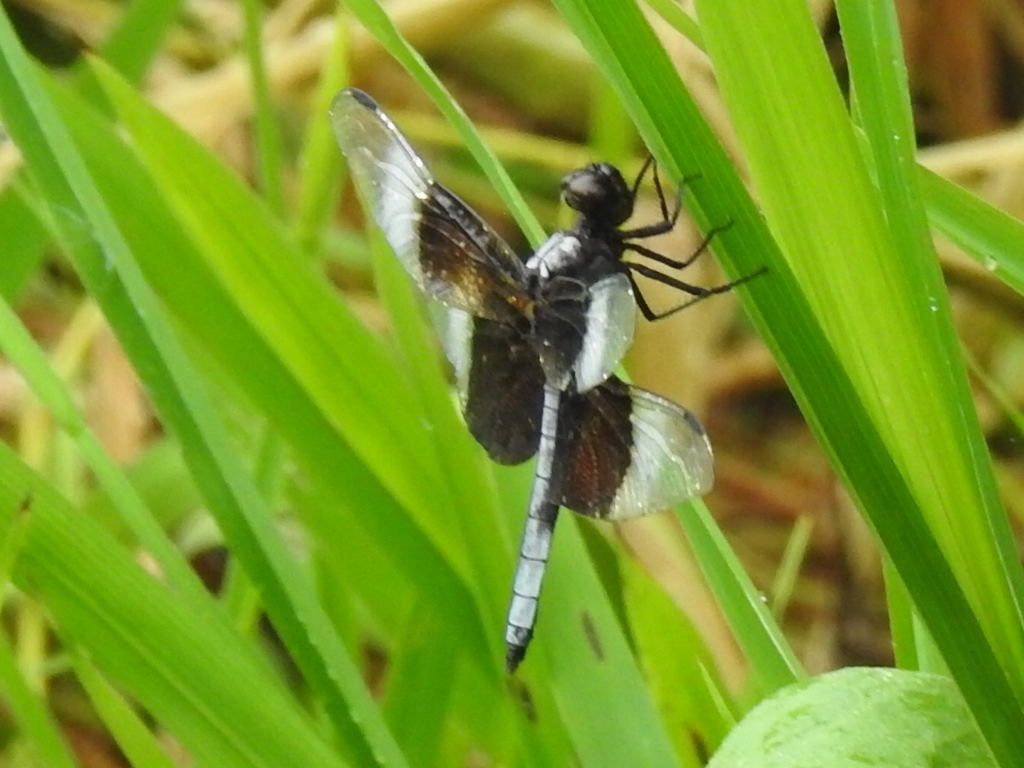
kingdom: Animalia
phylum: Arthropoda
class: Insecta
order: Odonata
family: Libellulidae
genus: Libellula
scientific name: Libellula luctuosa
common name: Widow skimmer
